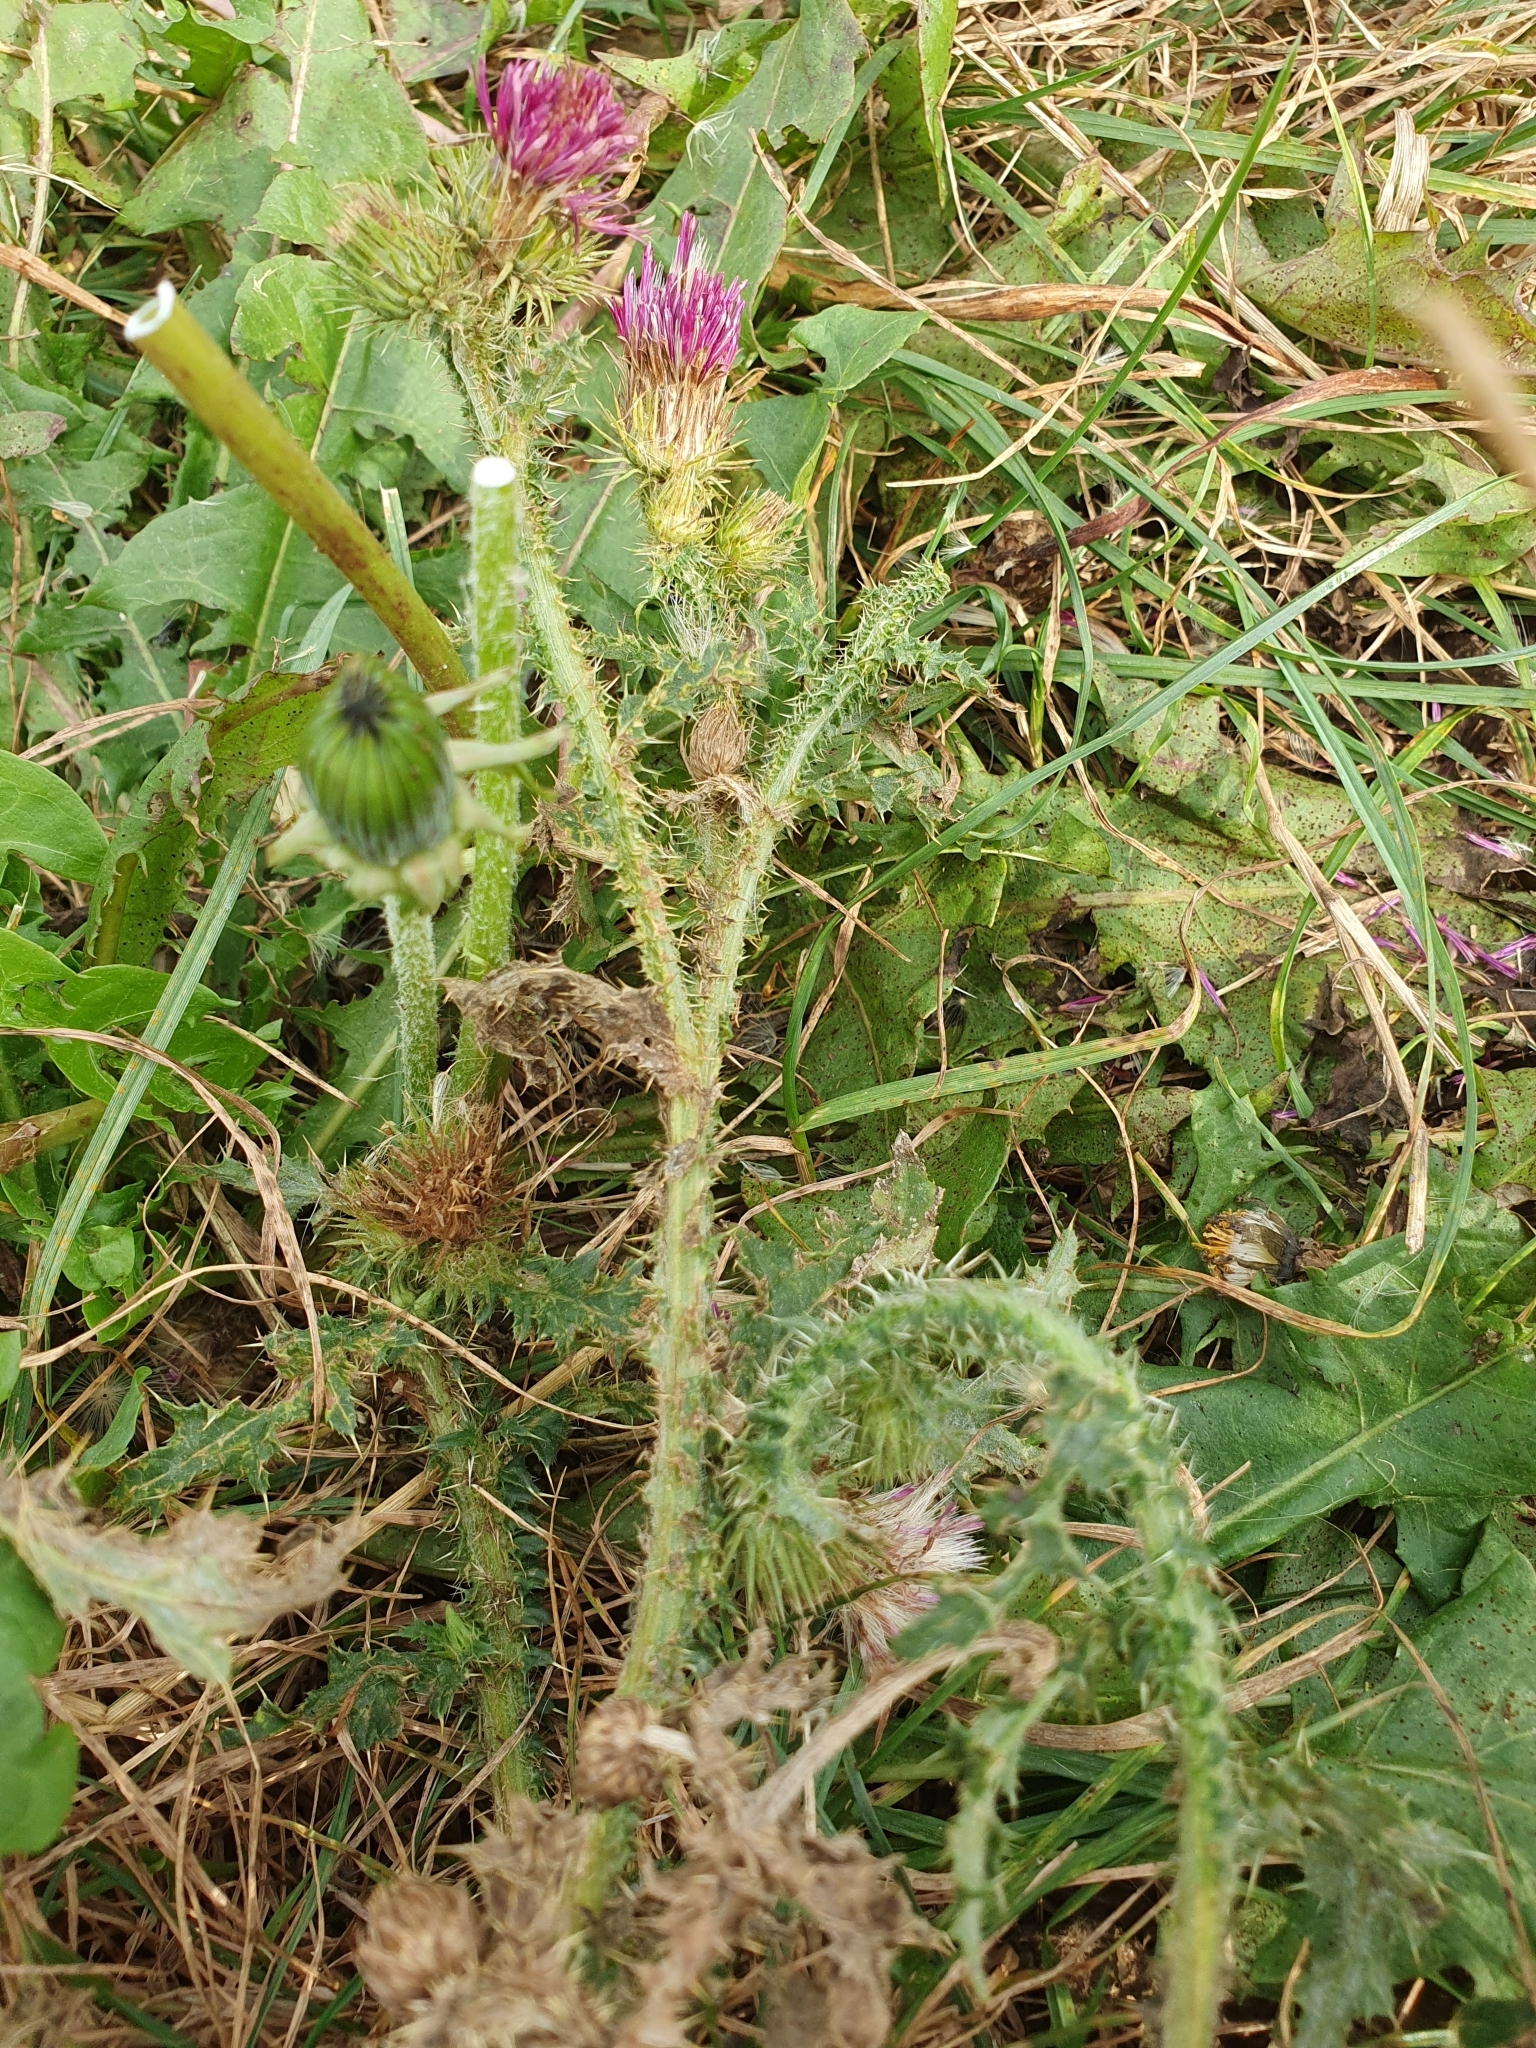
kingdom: Plantae
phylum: Tracheophyta
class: Magnoliopsida
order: Asterales
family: Asteraceae
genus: Carduus
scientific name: Carduus crispus
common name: Welted thistle
